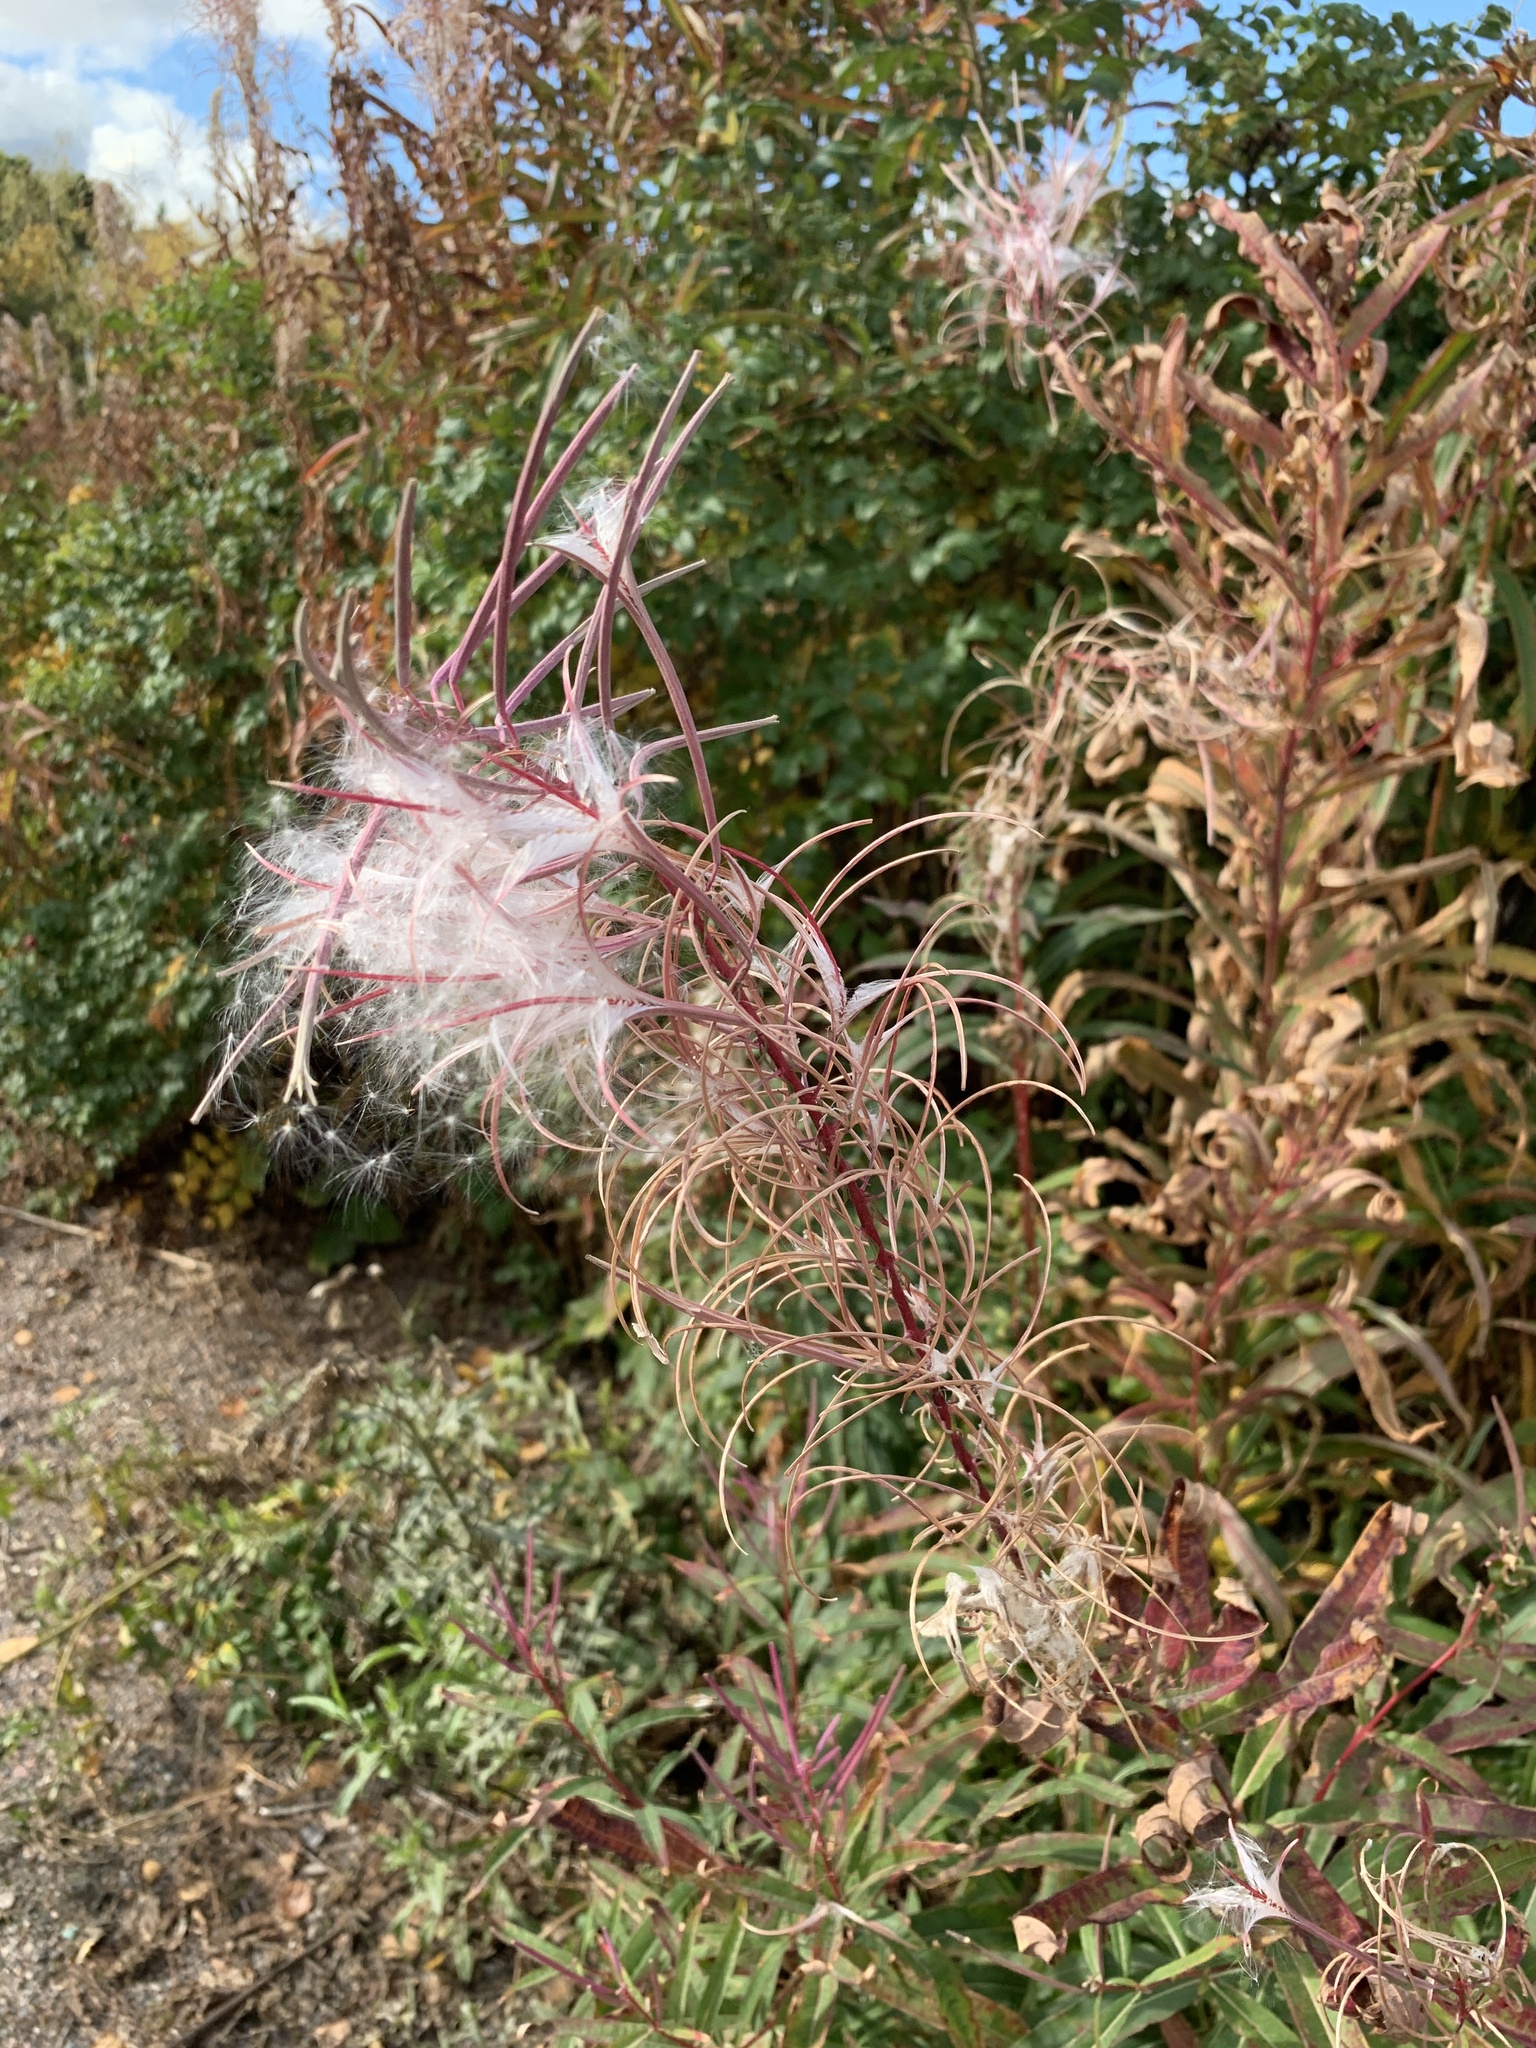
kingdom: Plantae
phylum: Tracheophyta
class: Magnoliopsida
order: Myrtales
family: Onagraceae
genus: Chamaenerion
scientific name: Chamaenerion angustifolium
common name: Fireweed
